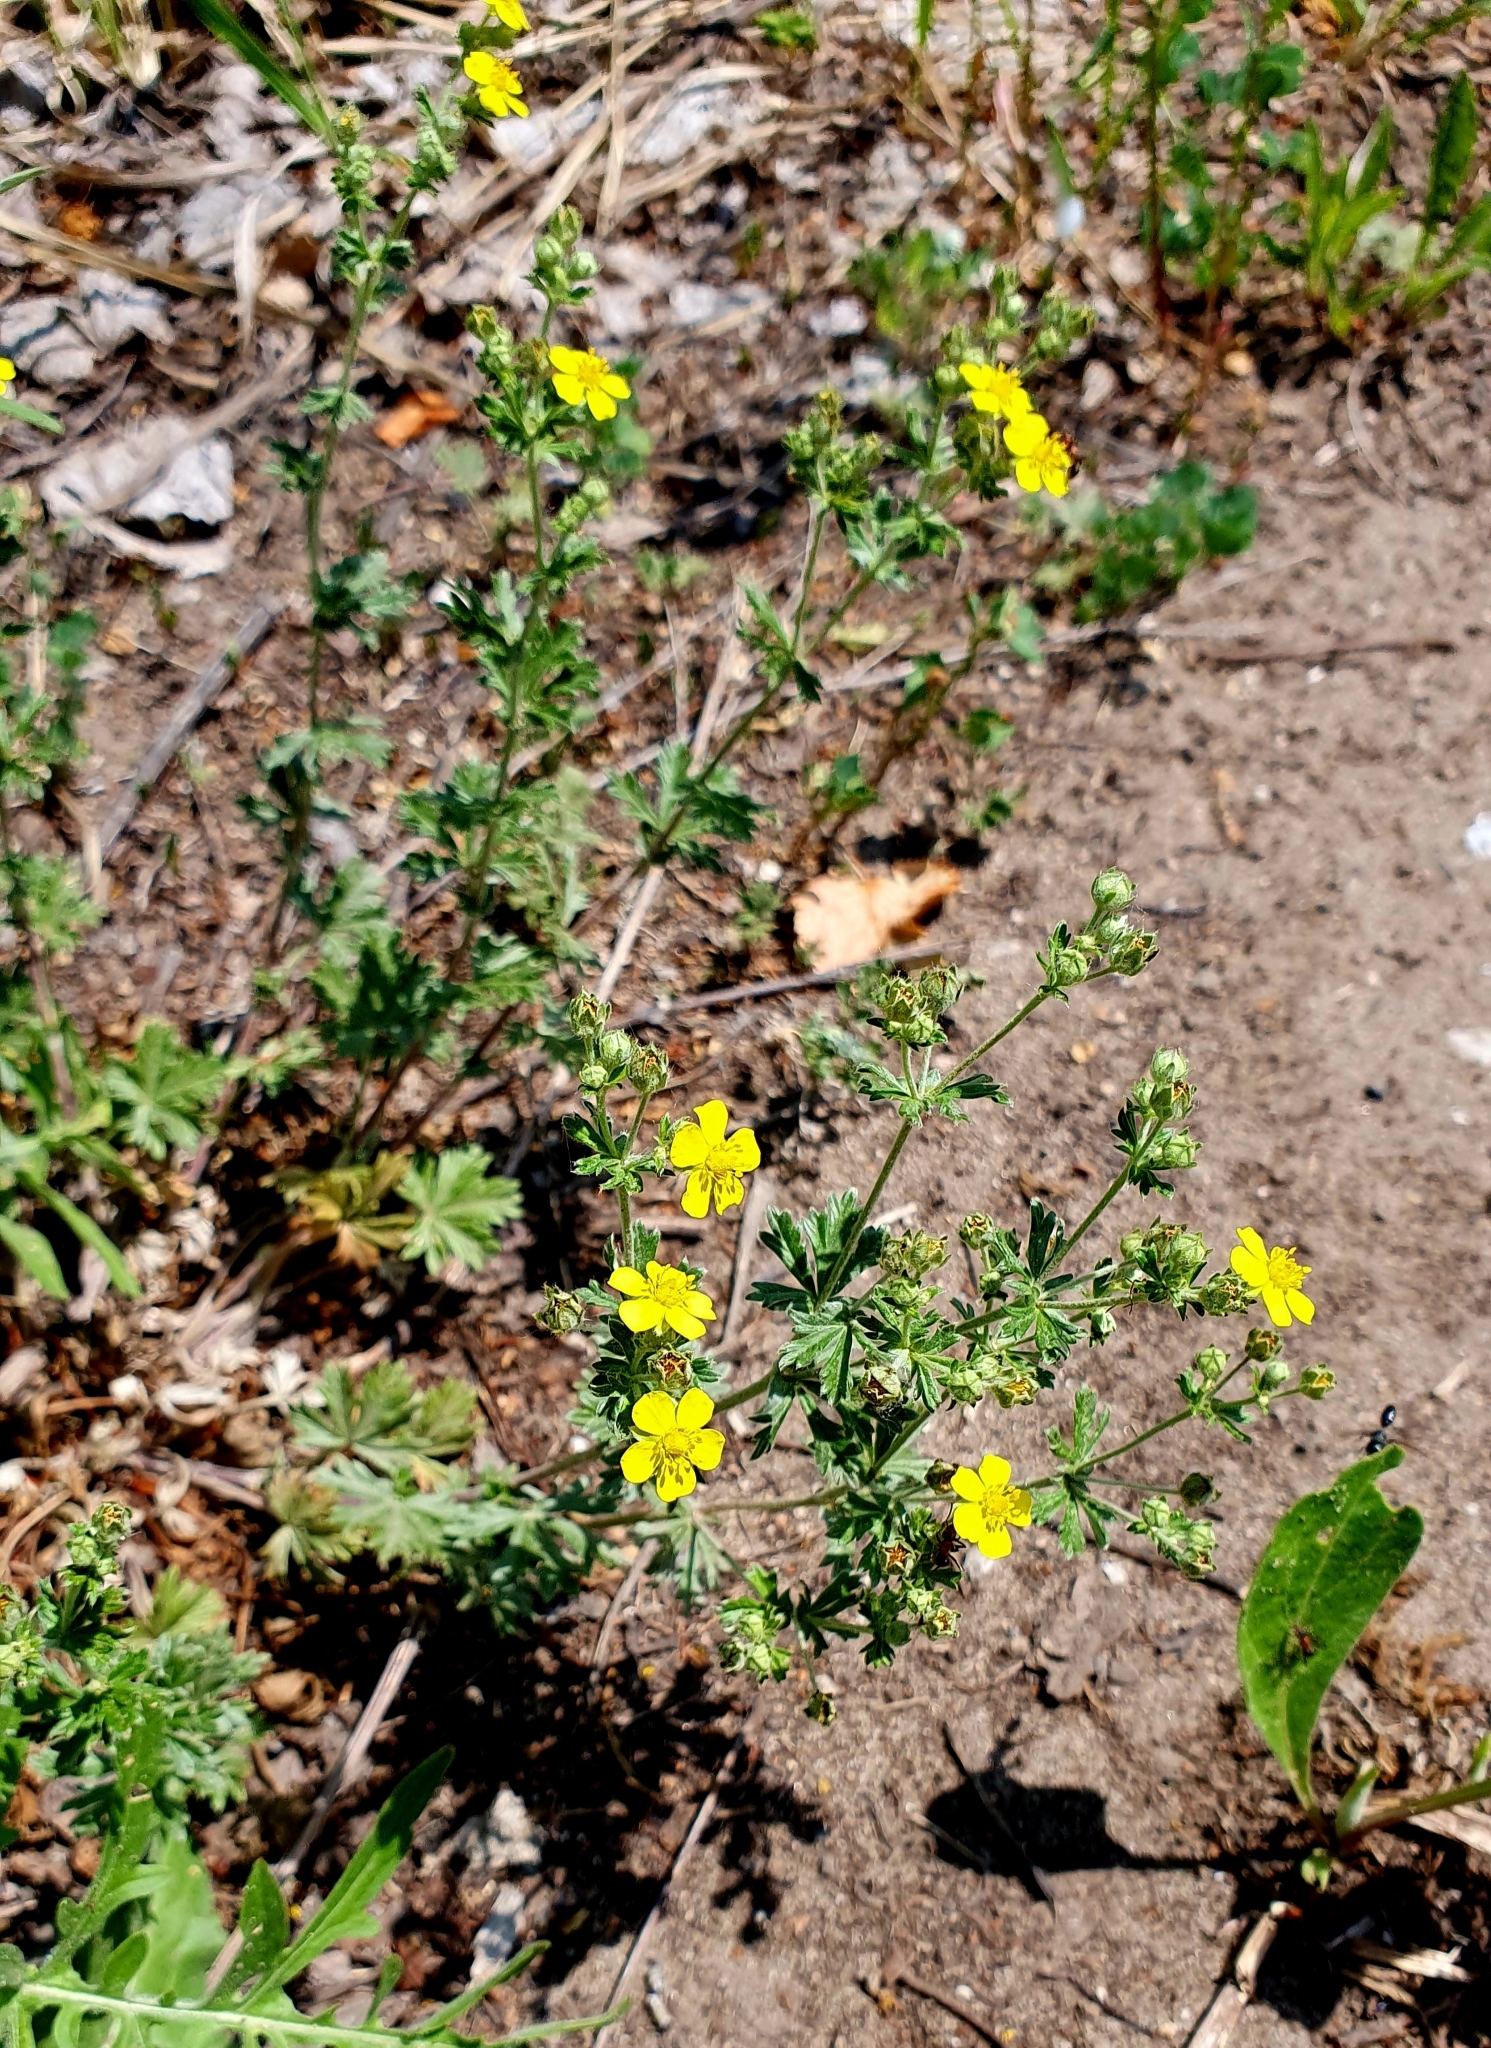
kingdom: Plantae
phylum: Tracheophyta
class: Magnoliopsida
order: Rosales
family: Rosaceae
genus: Potentilla
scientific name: Potentilla argentea
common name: Hoary cinquefoil
